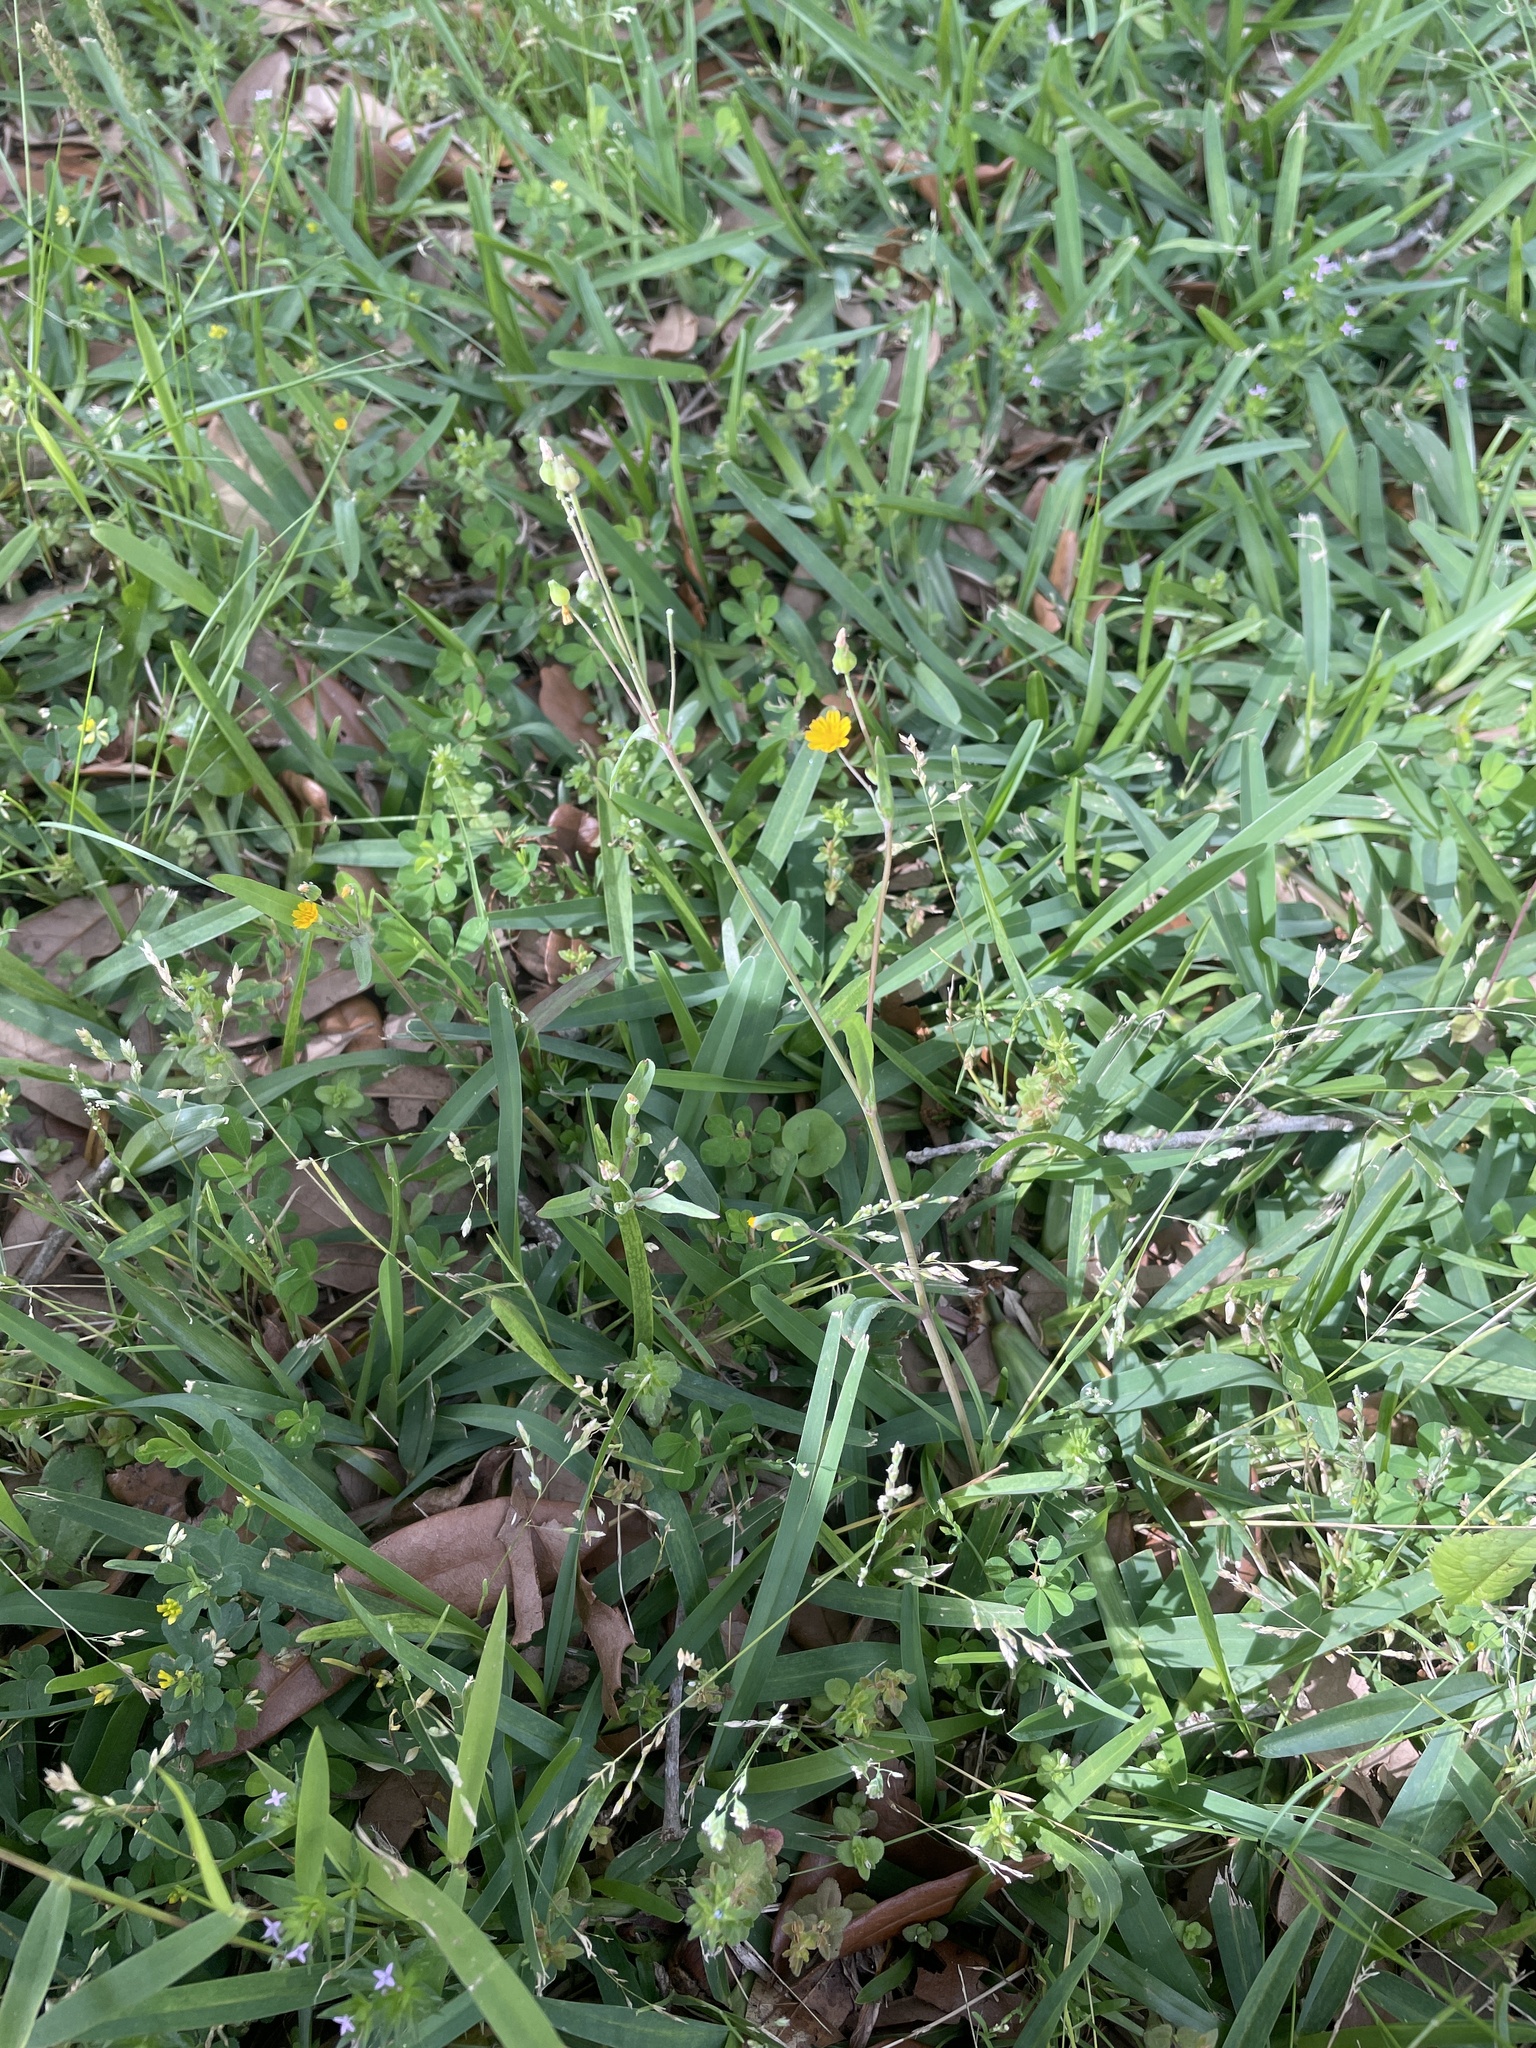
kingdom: Plantae
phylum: Tracheophyta
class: Magnoliopsida
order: Asterales
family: Asteraceae
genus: Krigia
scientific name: Krigia cespitosa
